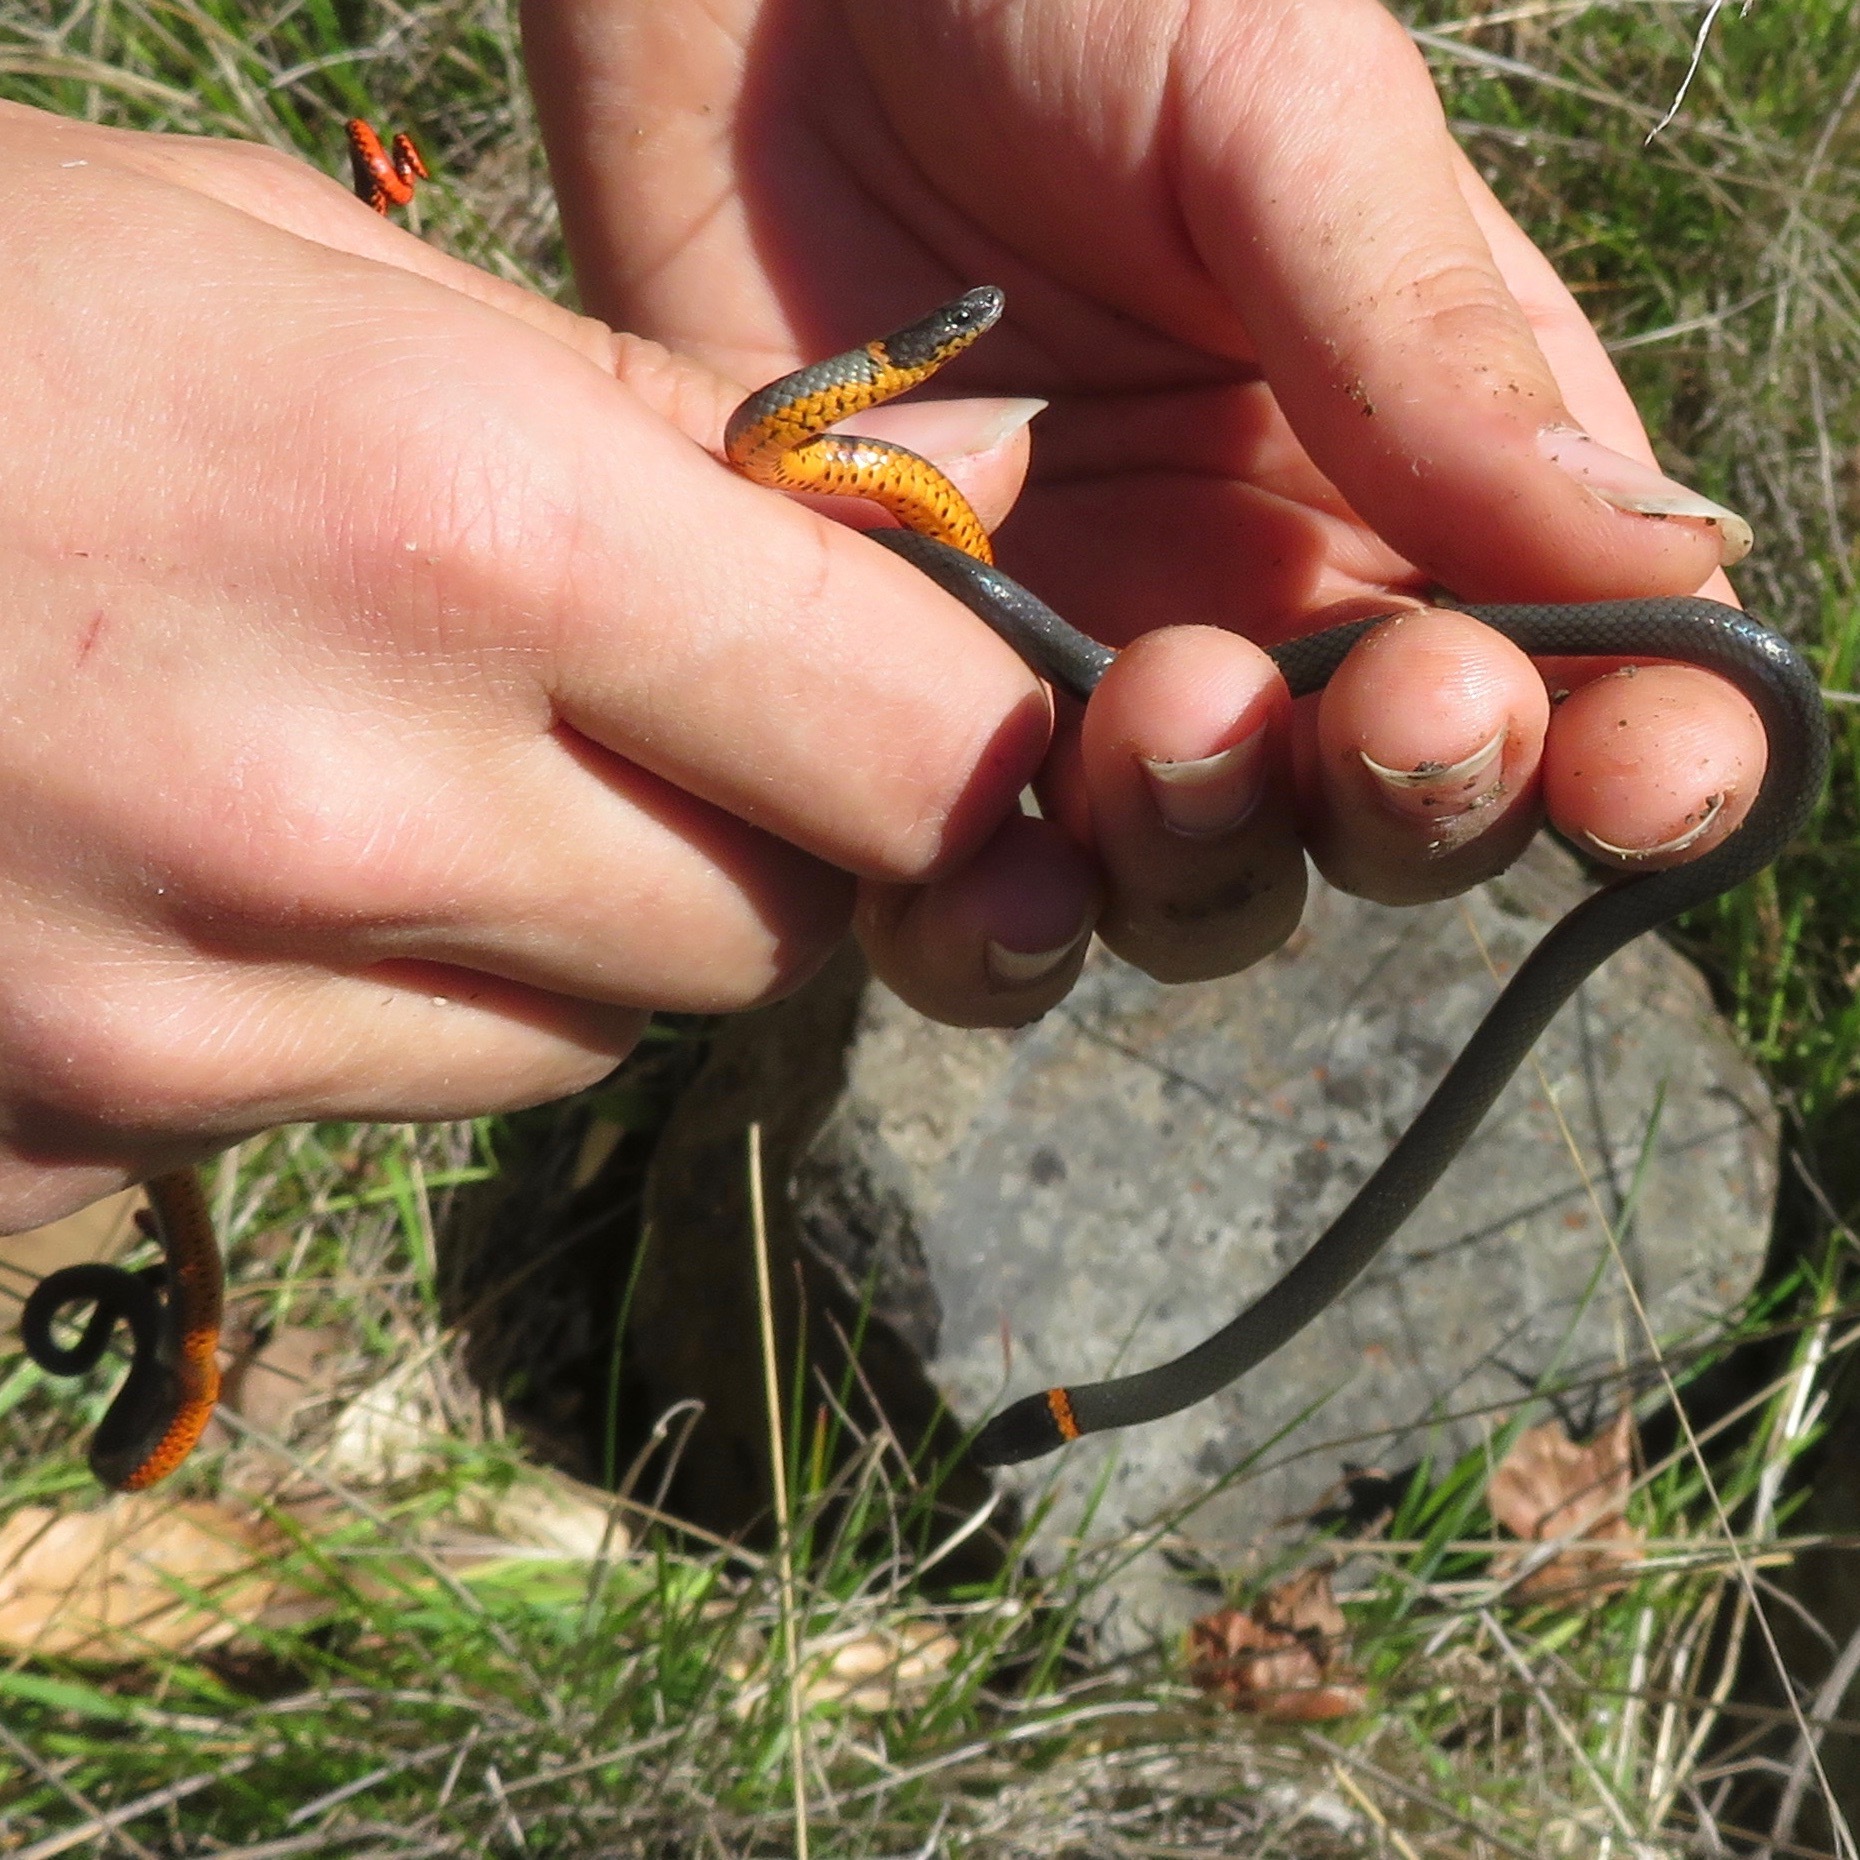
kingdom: Animalia
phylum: Chordata
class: Squamata
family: Colubridae
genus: Diadophis
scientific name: Diadophis punctatus
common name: Ringneck snake
